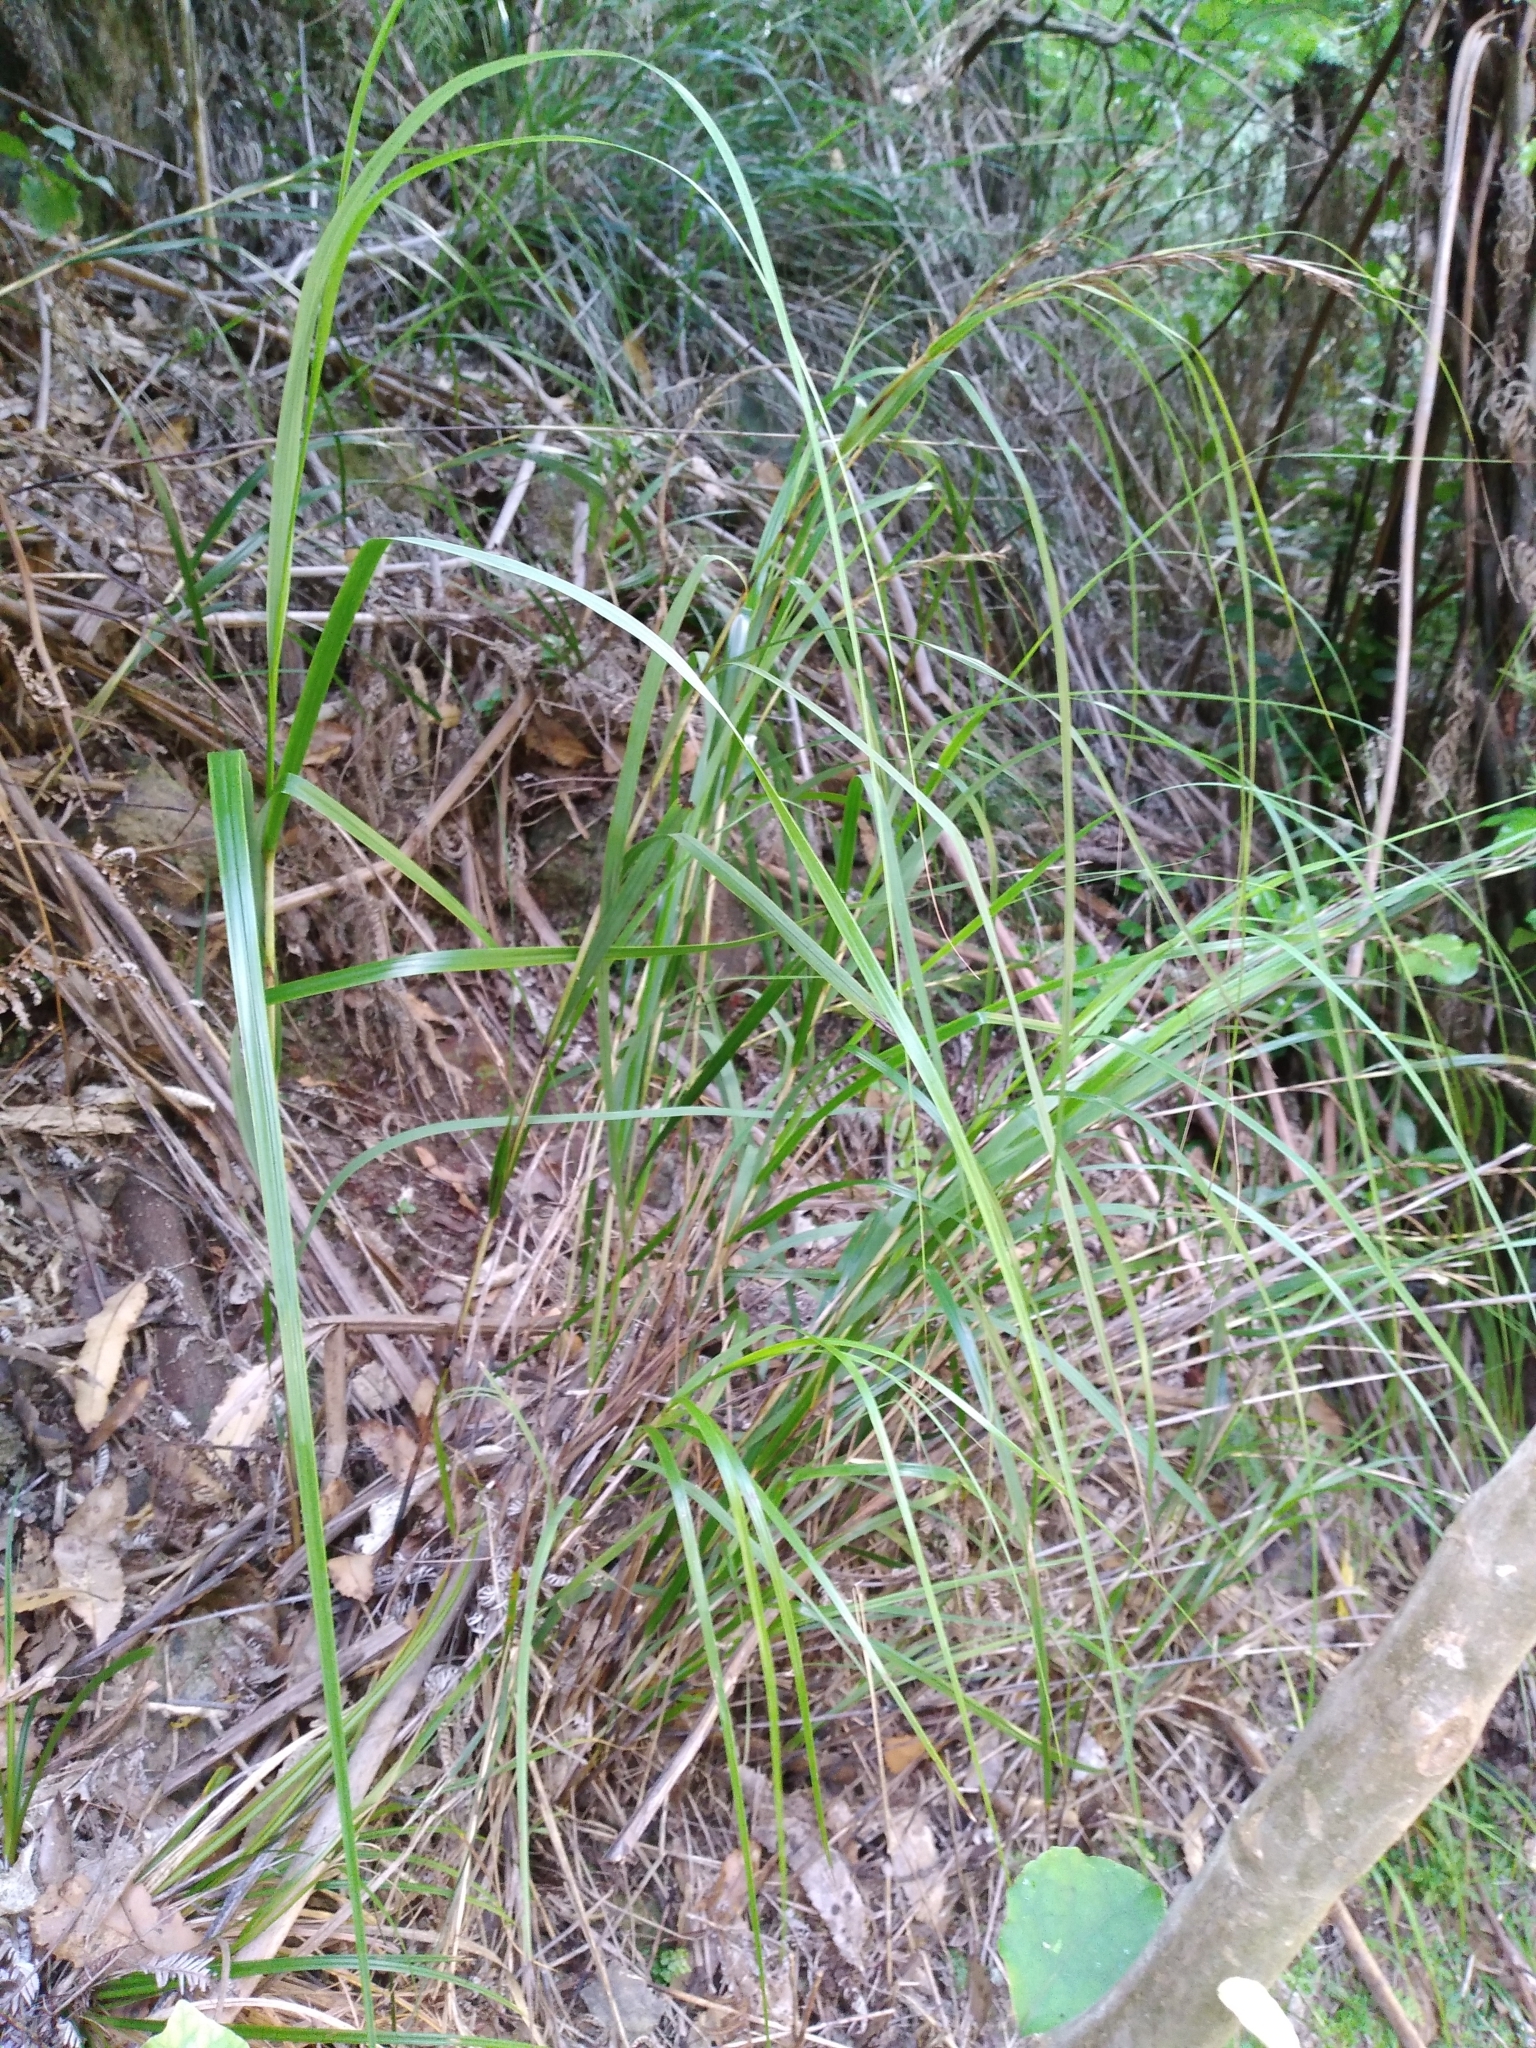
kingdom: Plantae
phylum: Tracheophyta
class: Liliopsida
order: Poales
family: Cyperaceae
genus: Gahnia
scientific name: Gahnia lacera
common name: Sawsedge
